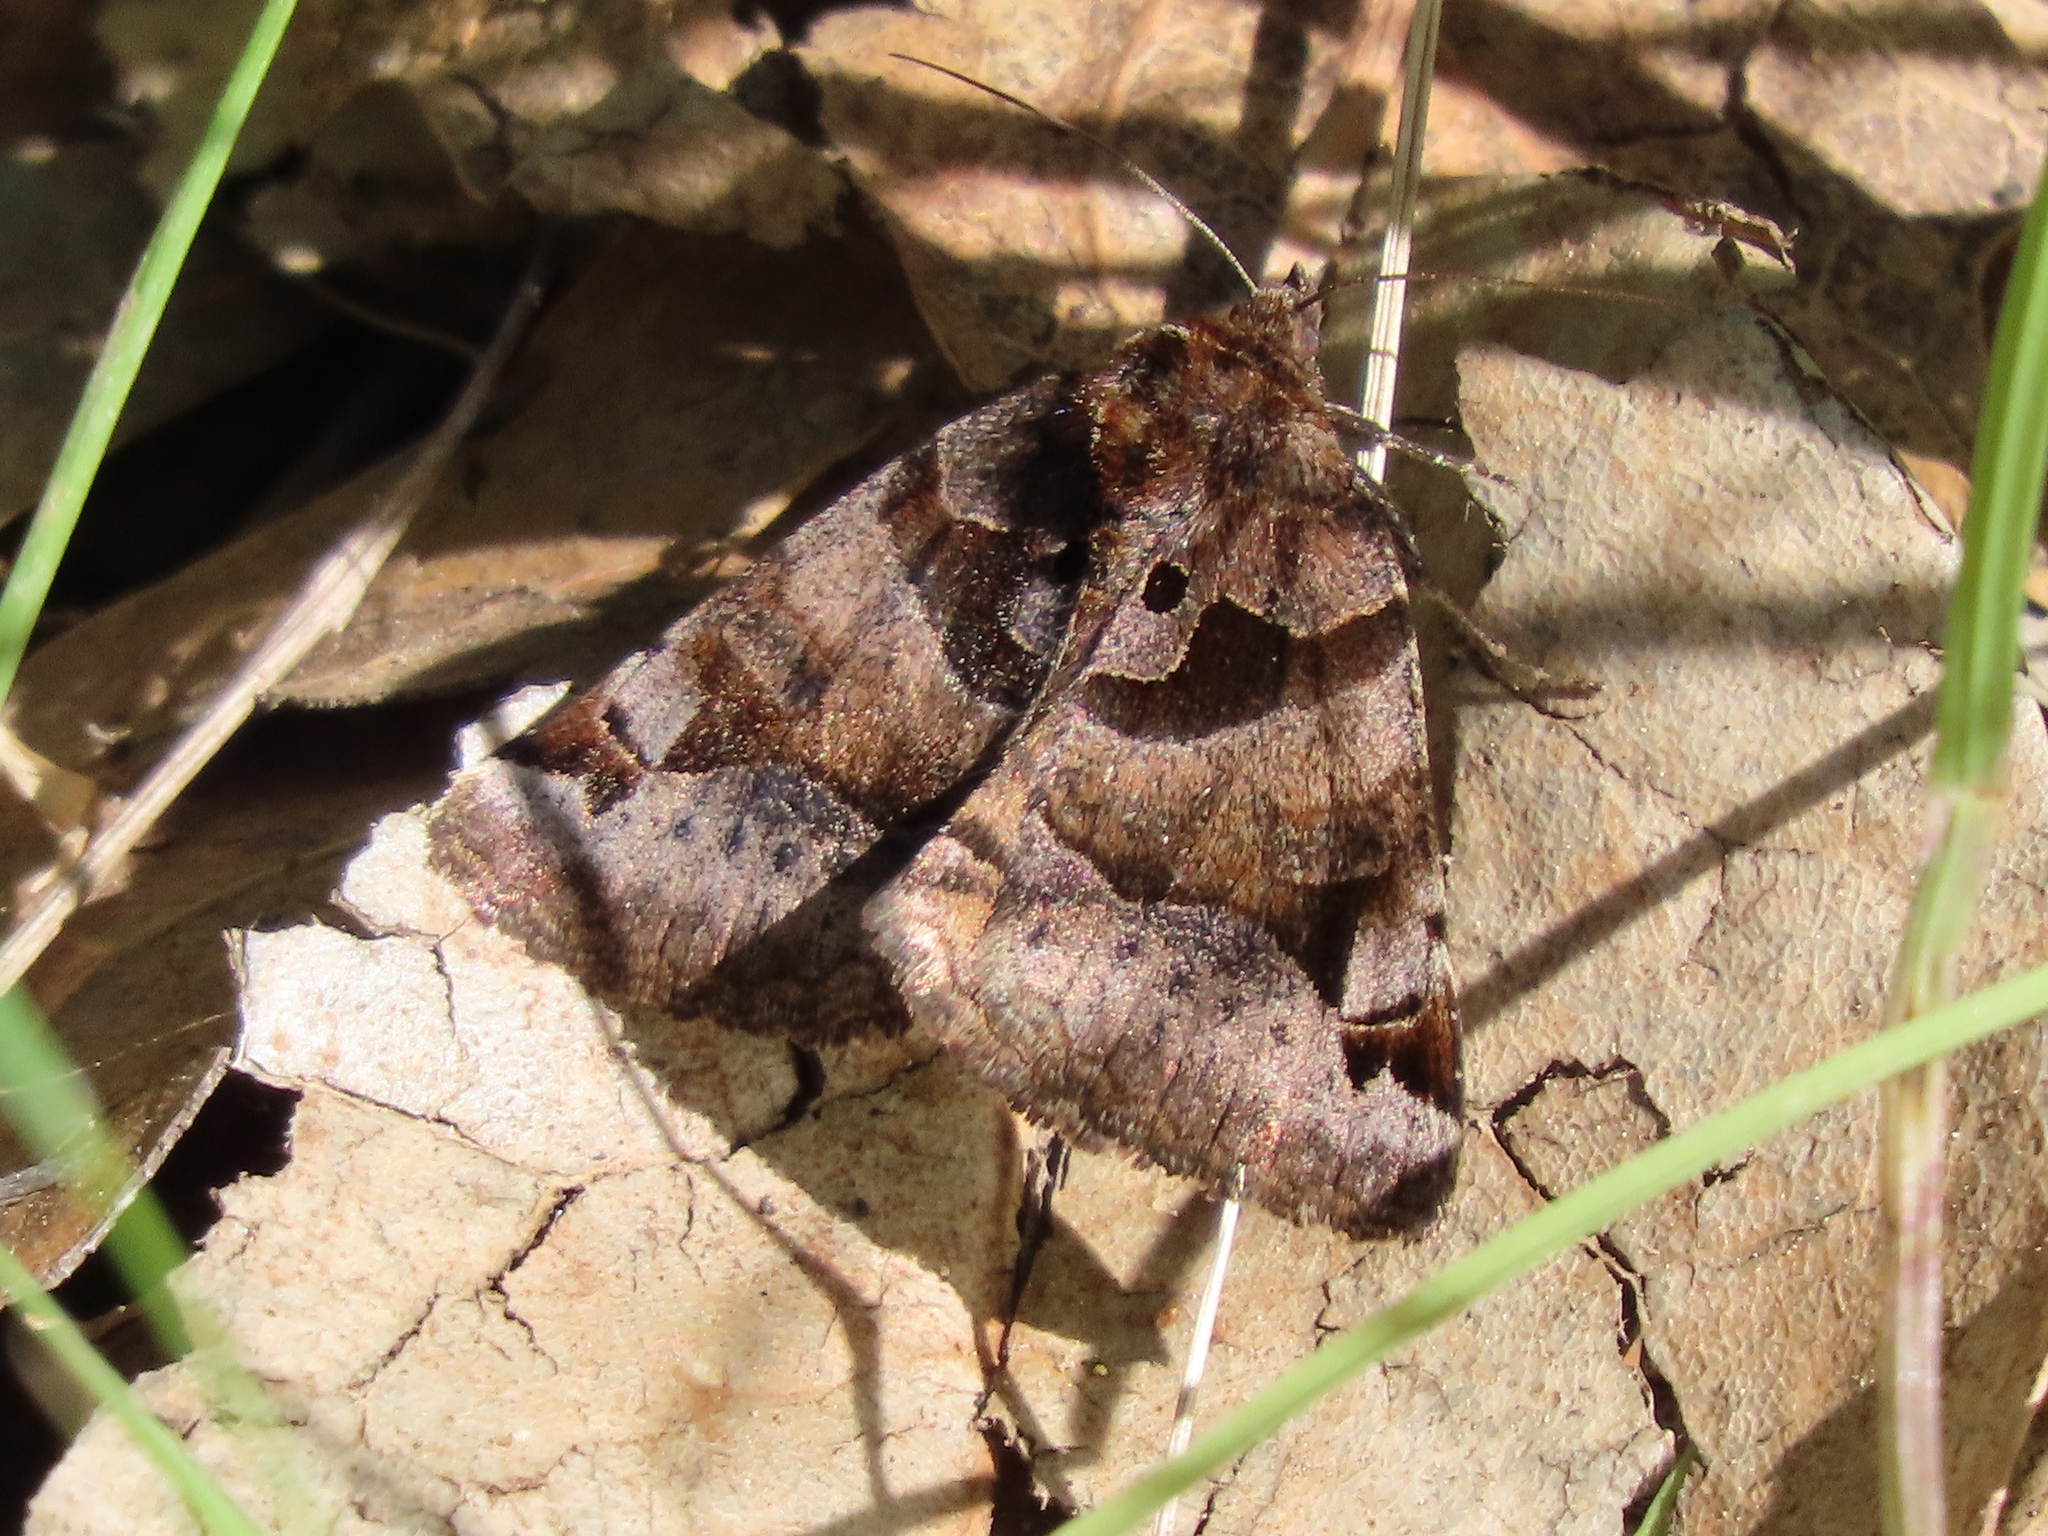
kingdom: Animalia
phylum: Arthropoda
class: Insecta
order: Lepidoptera
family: Erebidae
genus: Euclidia
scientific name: Euclidia ardita
